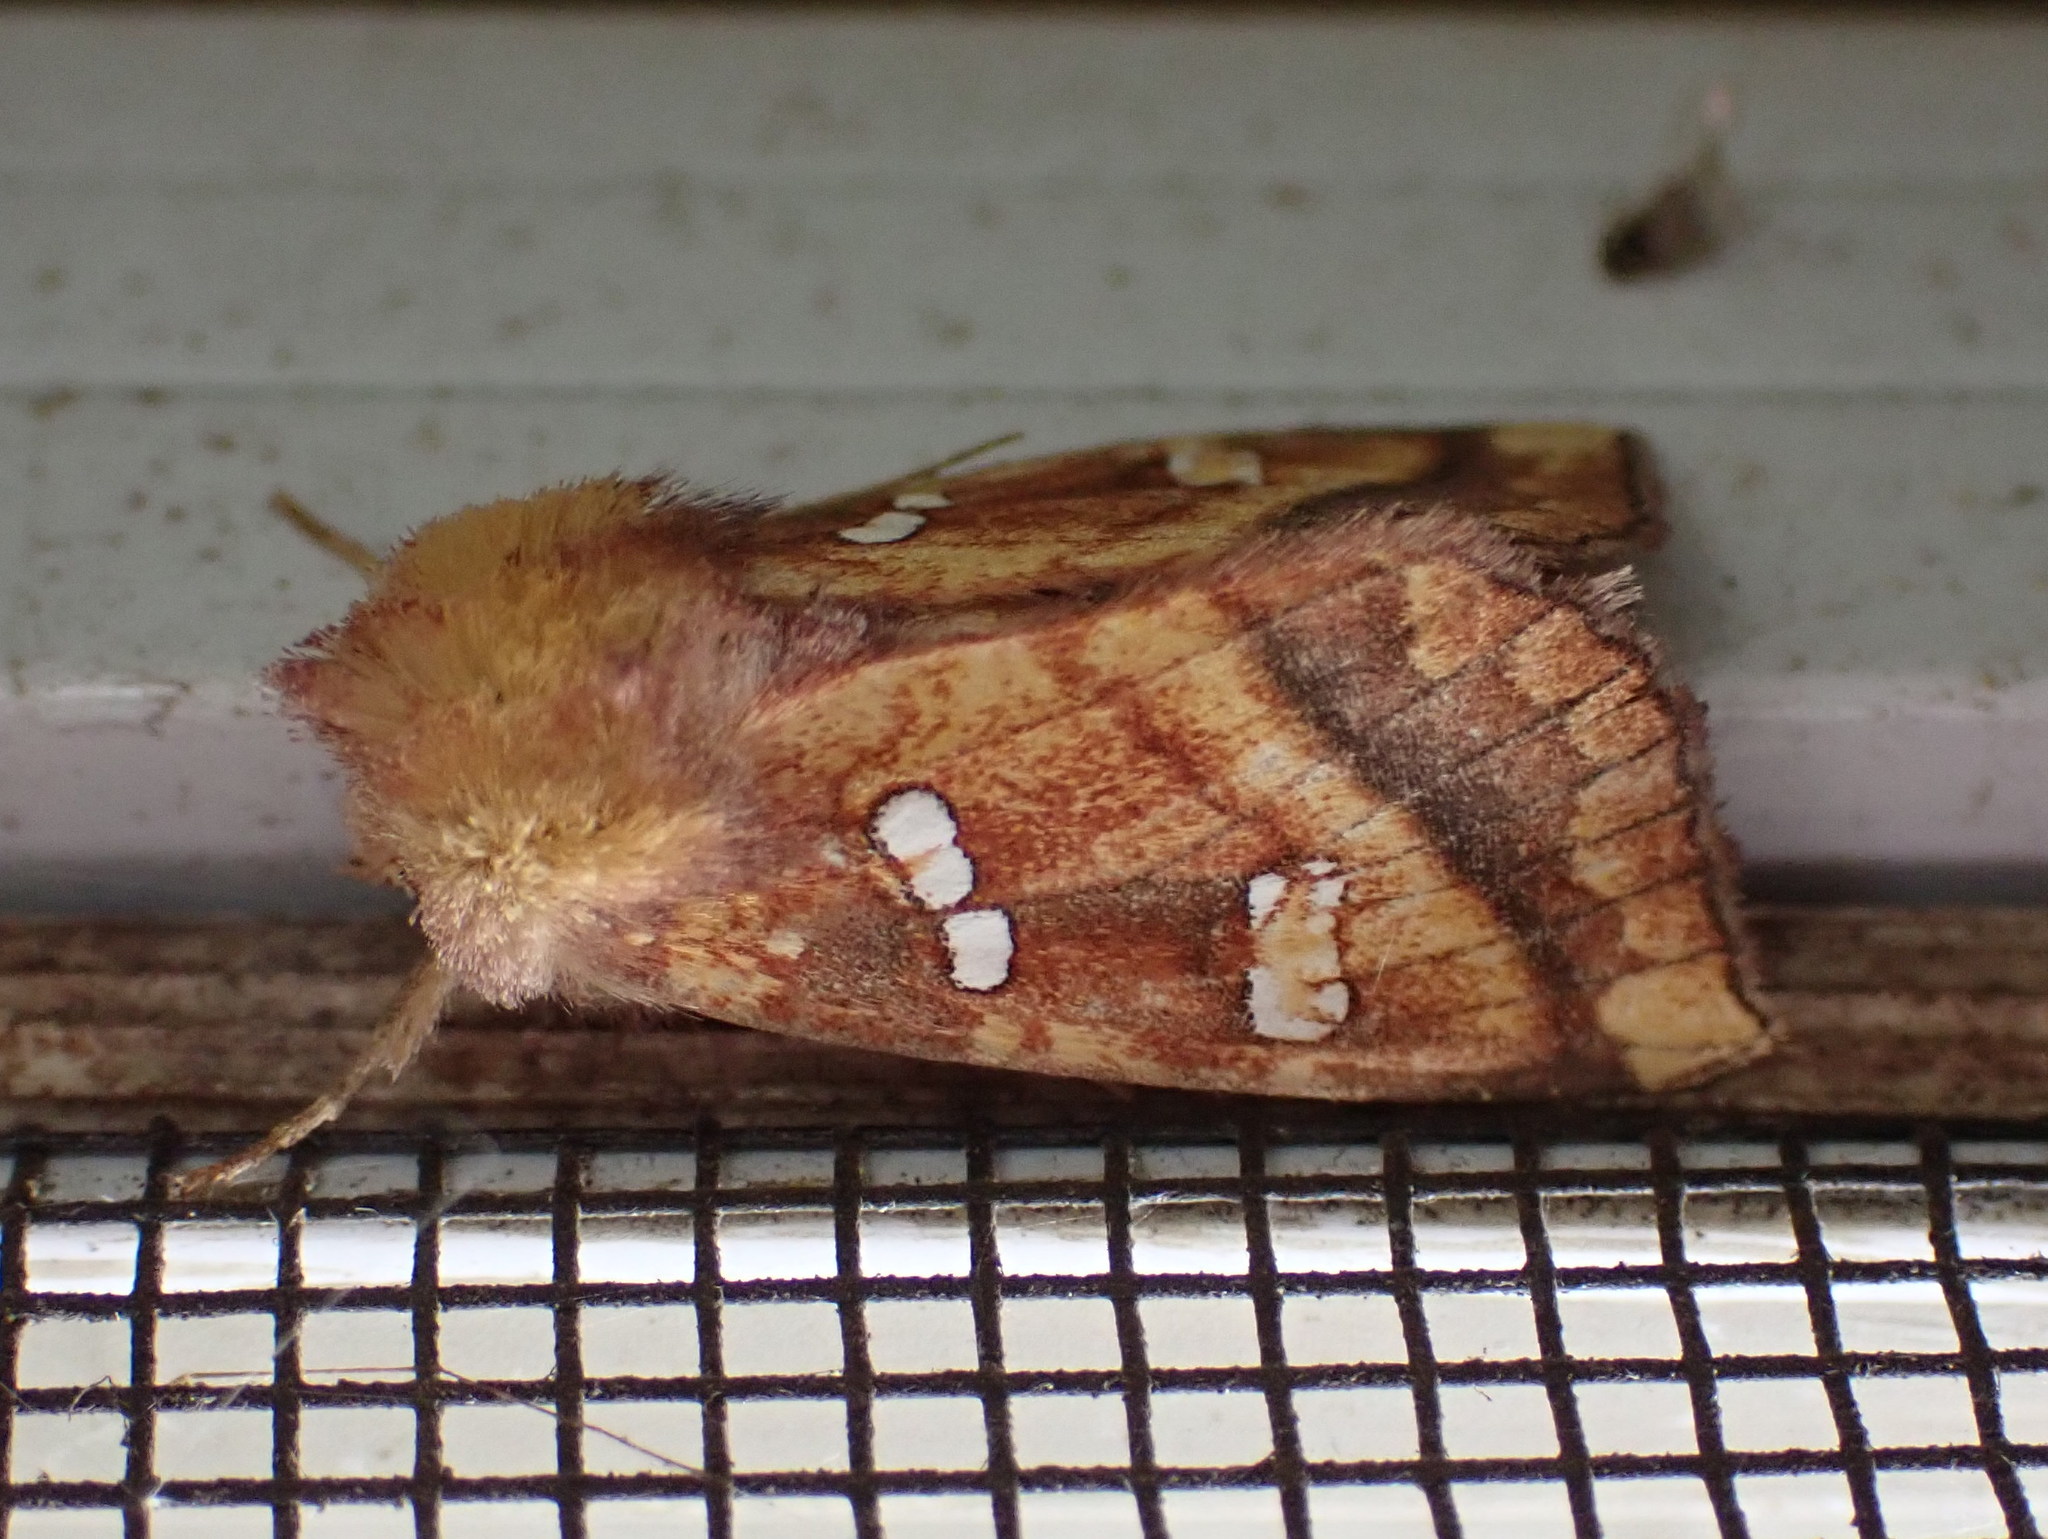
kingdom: Animalia
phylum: Arthropoda
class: Insecta
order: Lepidoptera
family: Noctuidae
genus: Papaipema
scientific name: Papaipema pterisii
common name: Bracken borer moth
